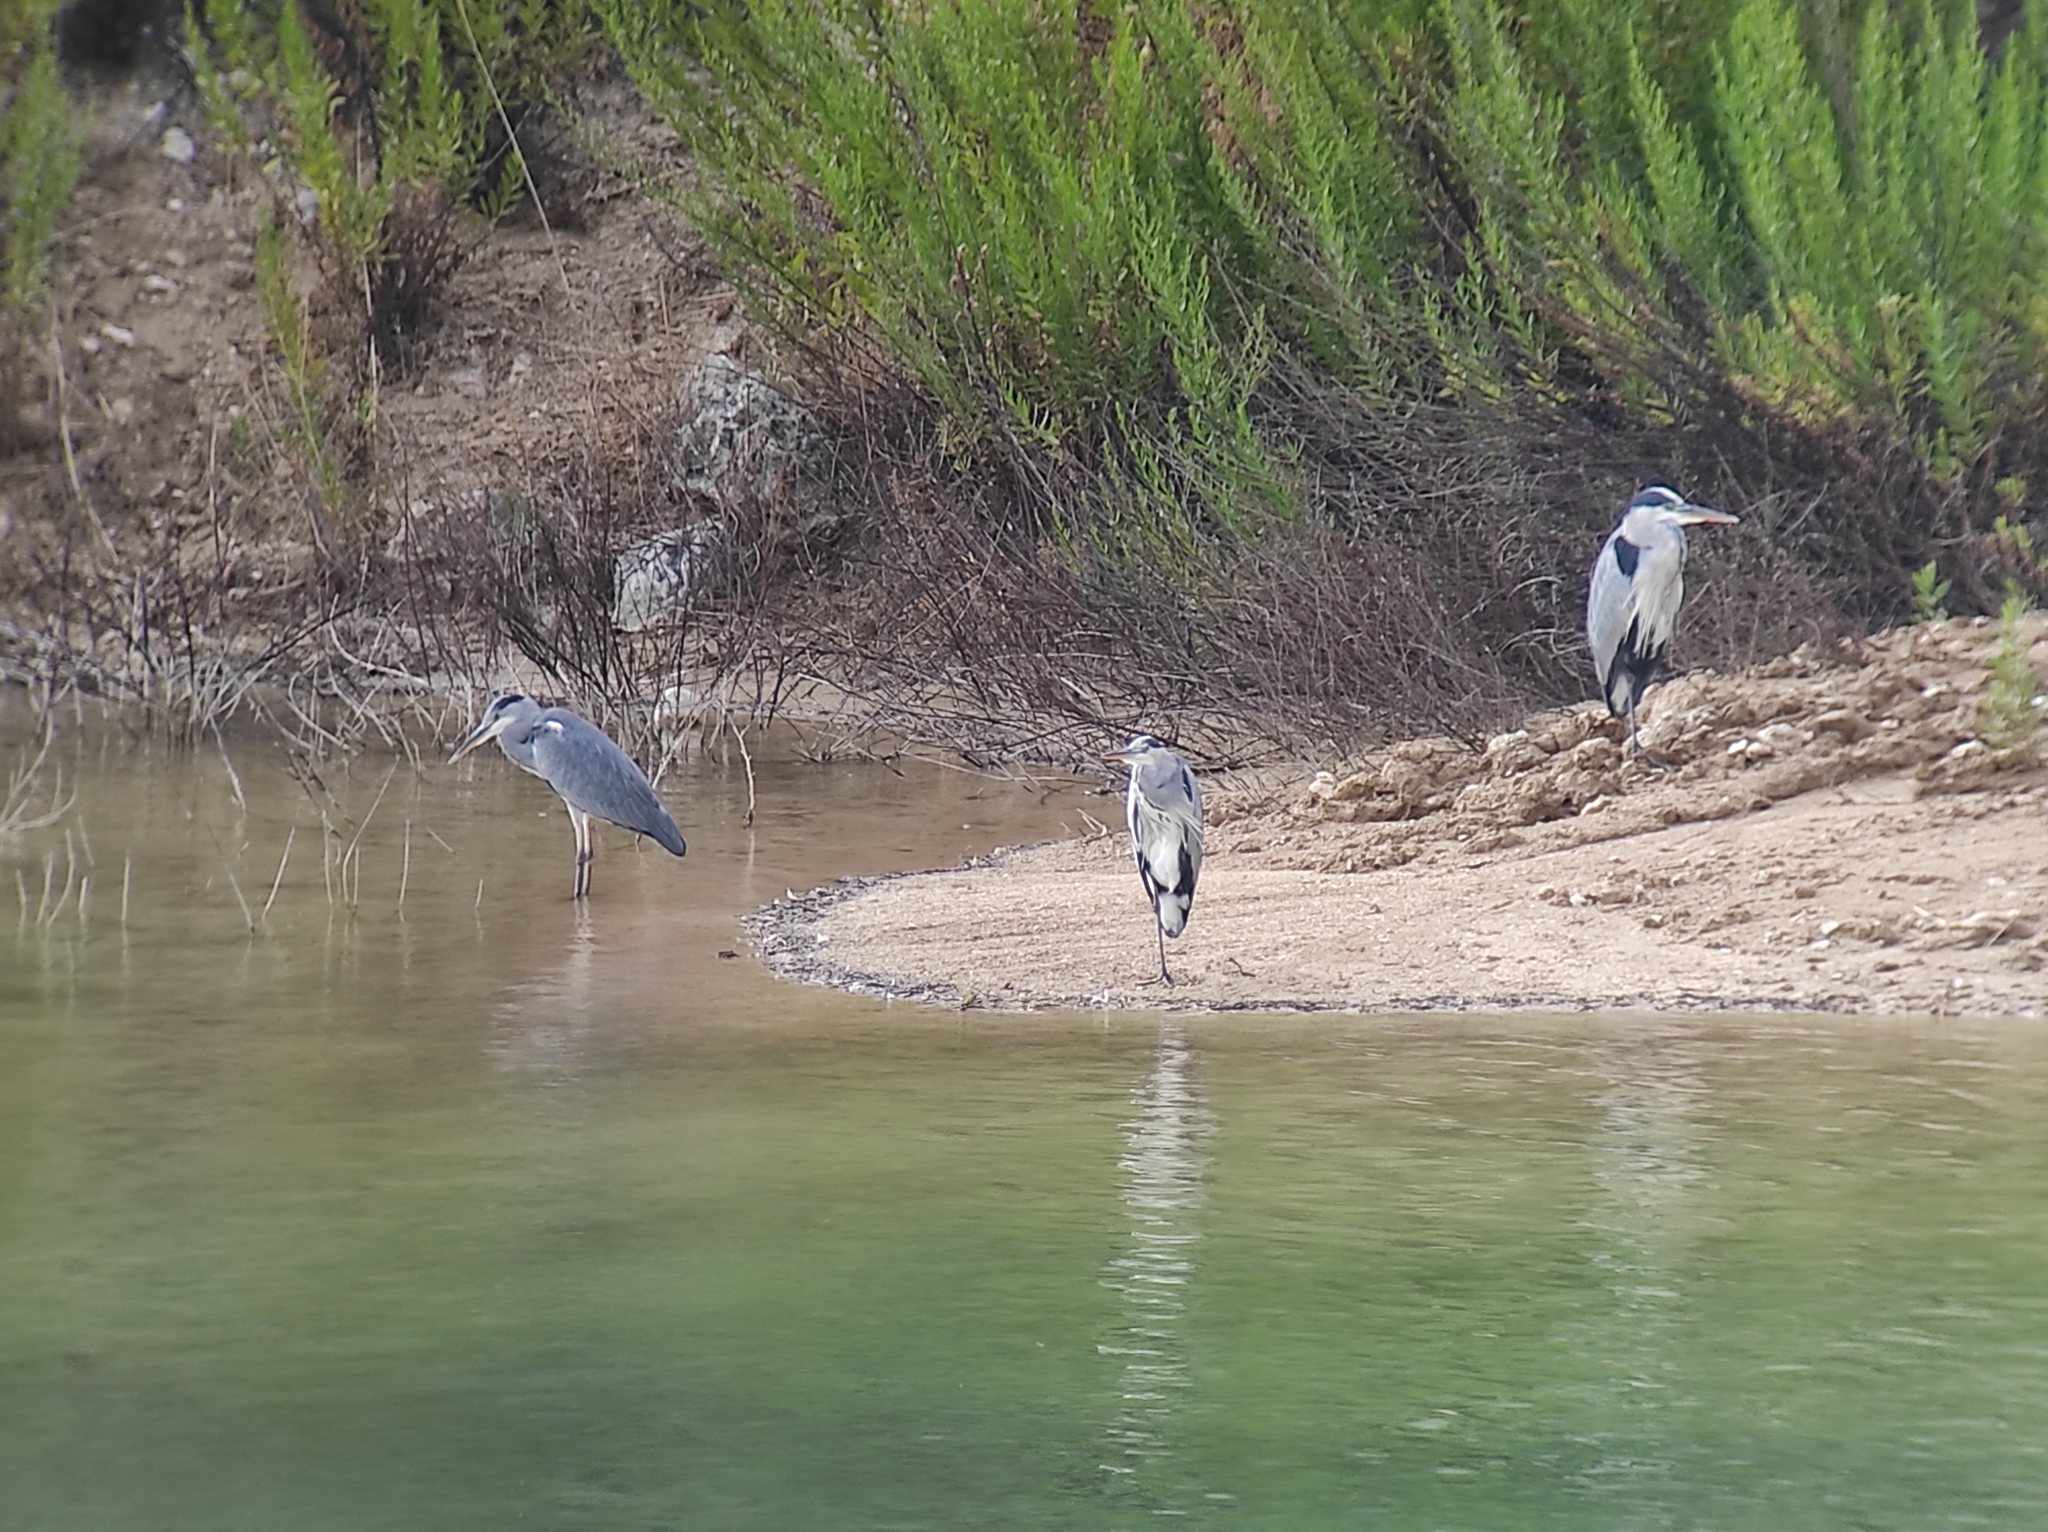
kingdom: Animalia
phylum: Chordata
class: Aves
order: Pelecaniformes
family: Ardeidae
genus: Ardea
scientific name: Ardea cinerea
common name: Grey heron
